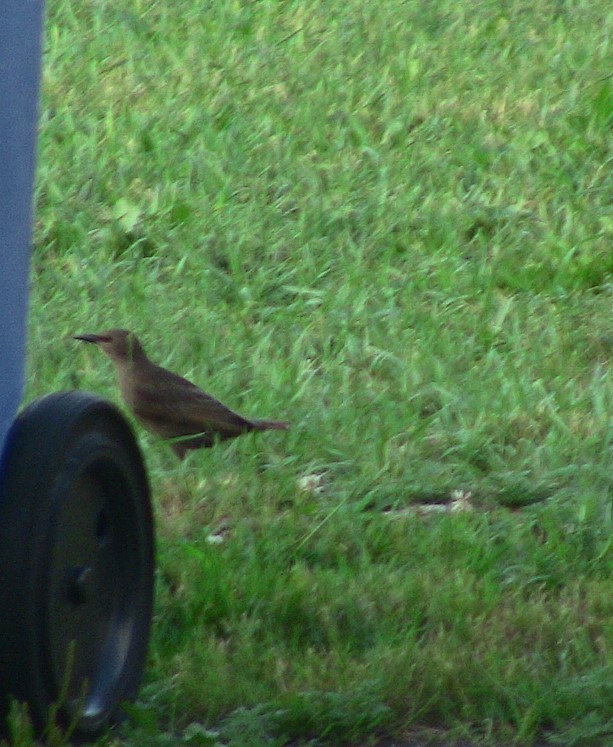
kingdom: Animalia
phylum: Chordata
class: Aves
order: Passeriformes
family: Sturnidae
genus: Sturnus
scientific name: Sturnus vulgaris
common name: Common starling
